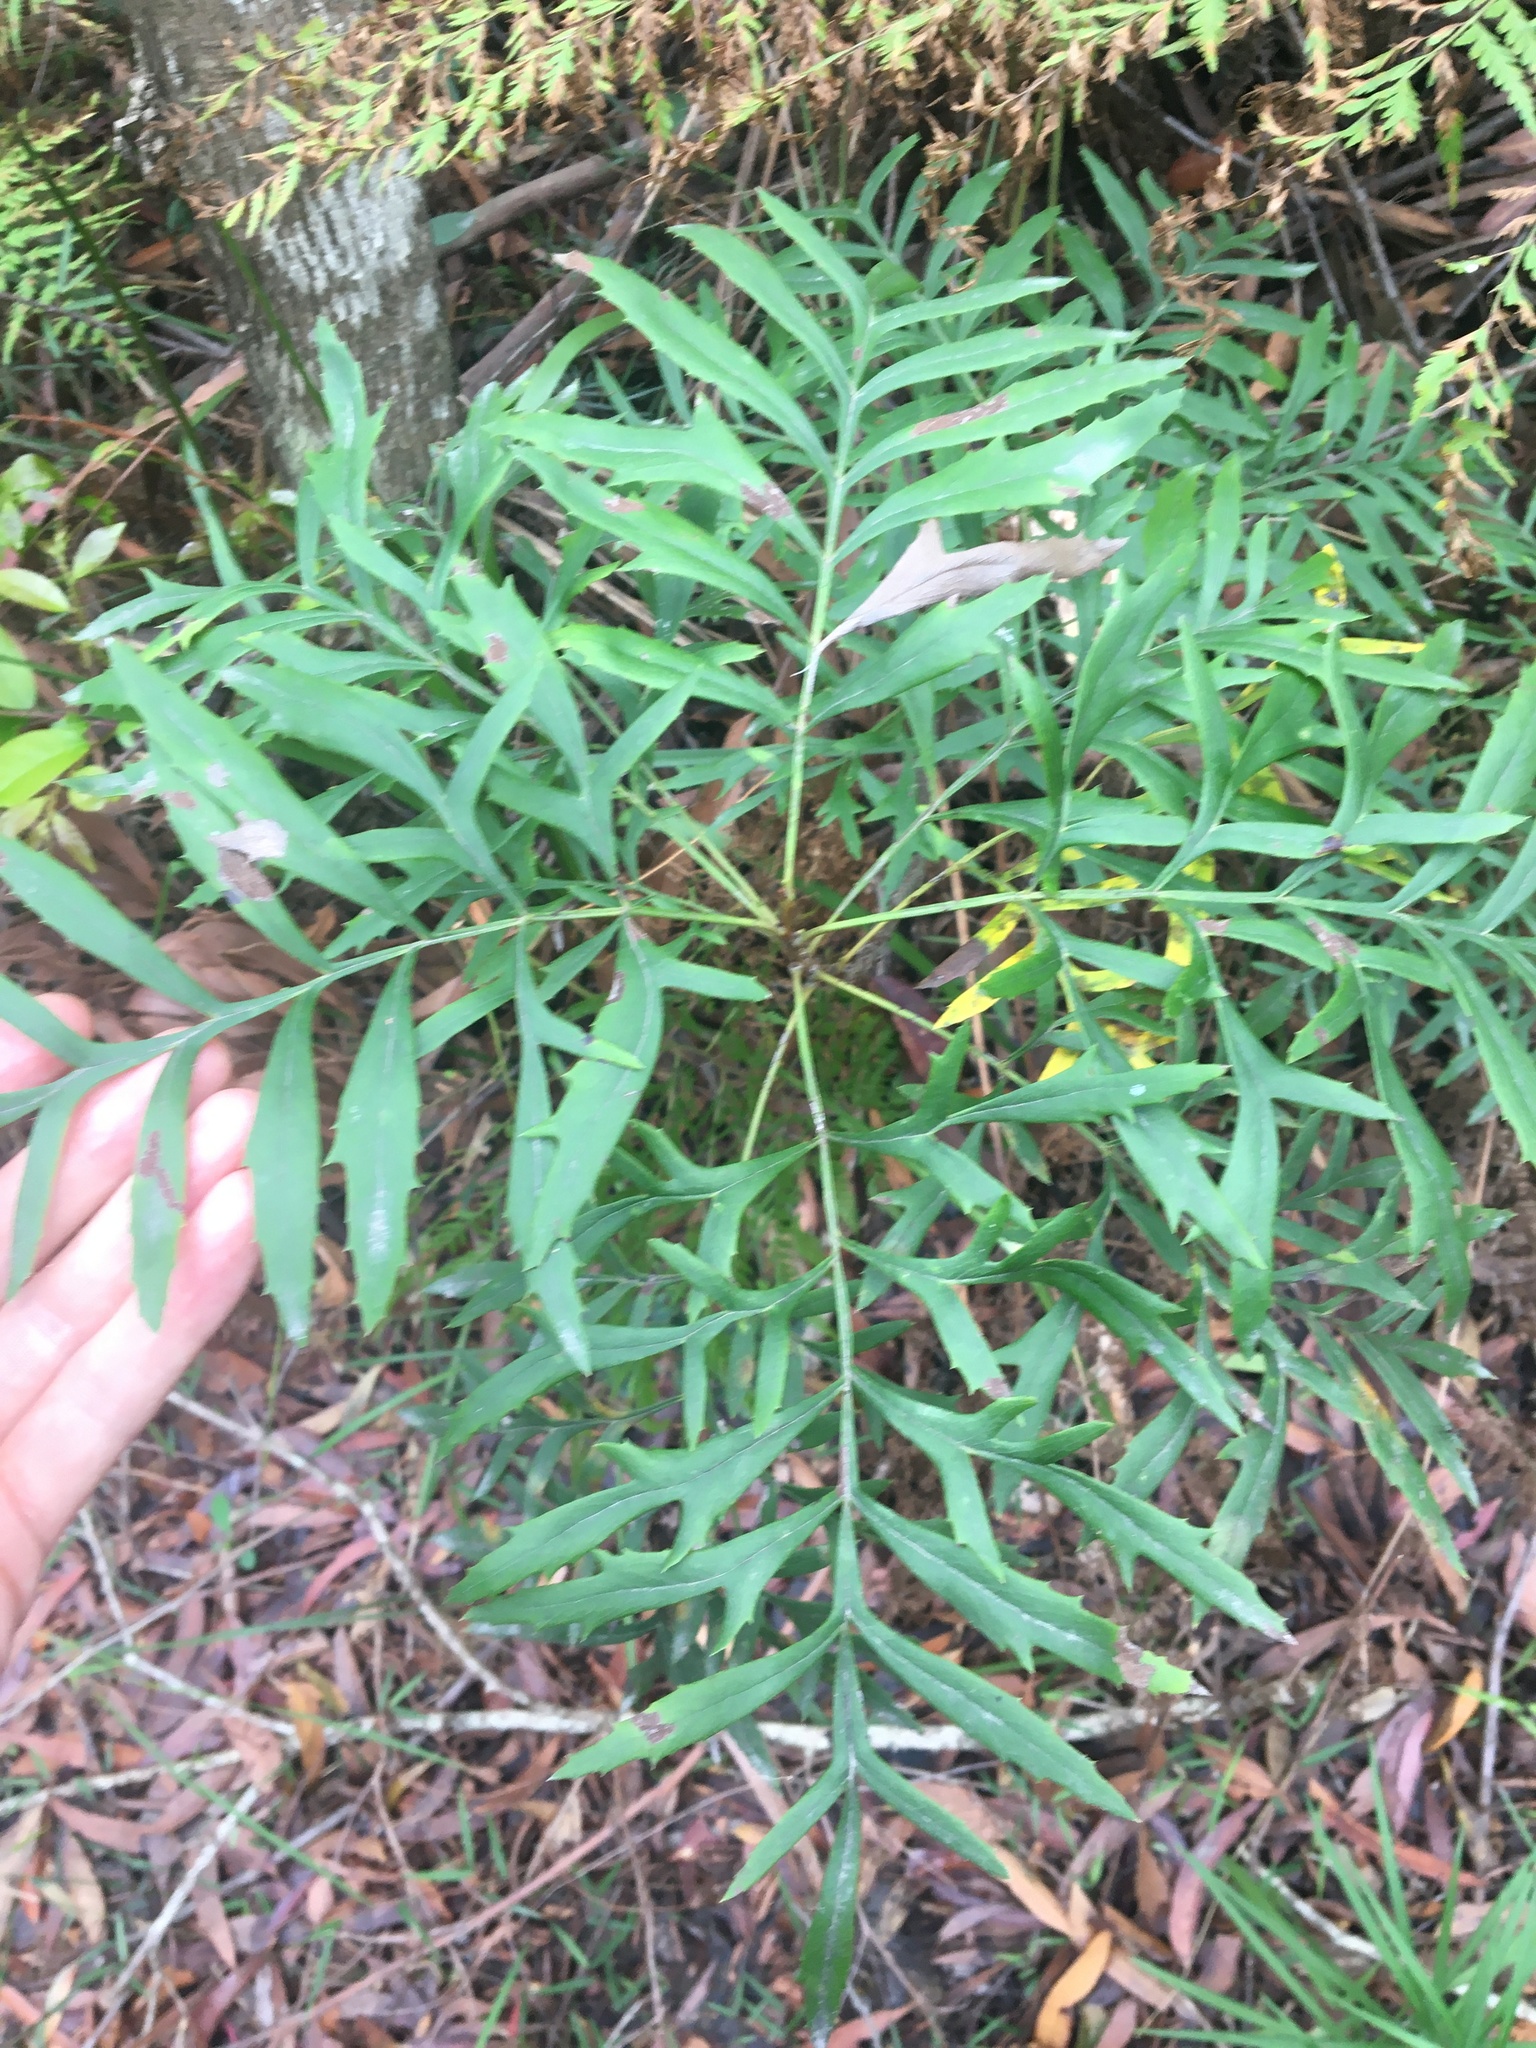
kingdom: Plantae
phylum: Tracheophyta
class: Magnoliopsida
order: Proteales
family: Proteaceae
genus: Lomatia
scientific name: Lomatia silaifolia
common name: Crinklebush
